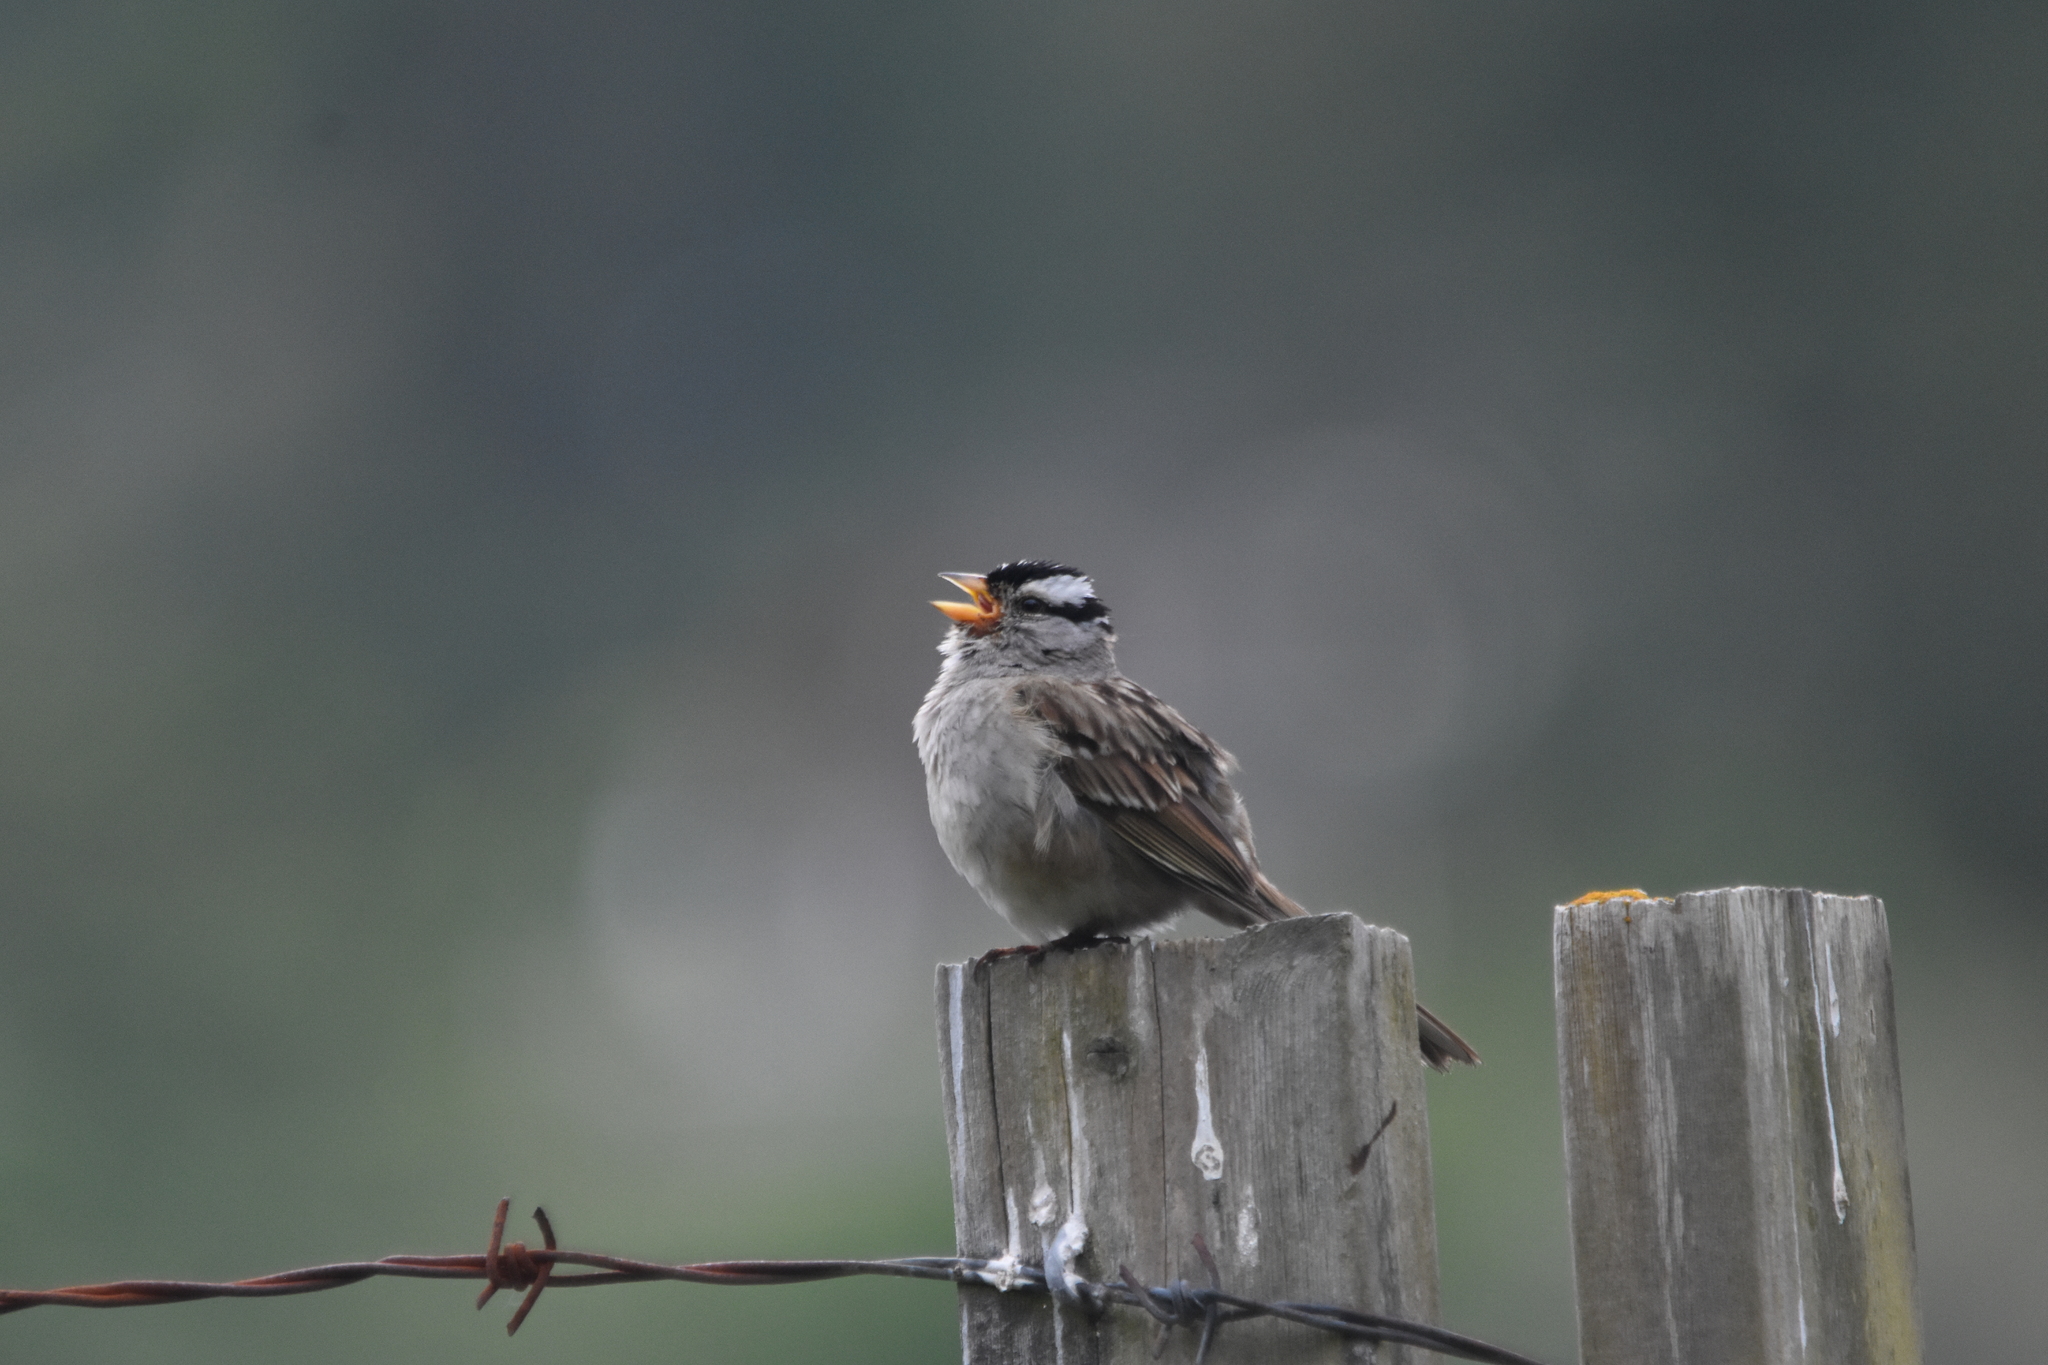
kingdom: Animalia
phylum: Chordata
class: Aves
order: Passeriformes
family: Passerellidae
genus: Zonotrichia
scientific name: Zonotrichia leucophrys
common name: White-crowned sparrow
